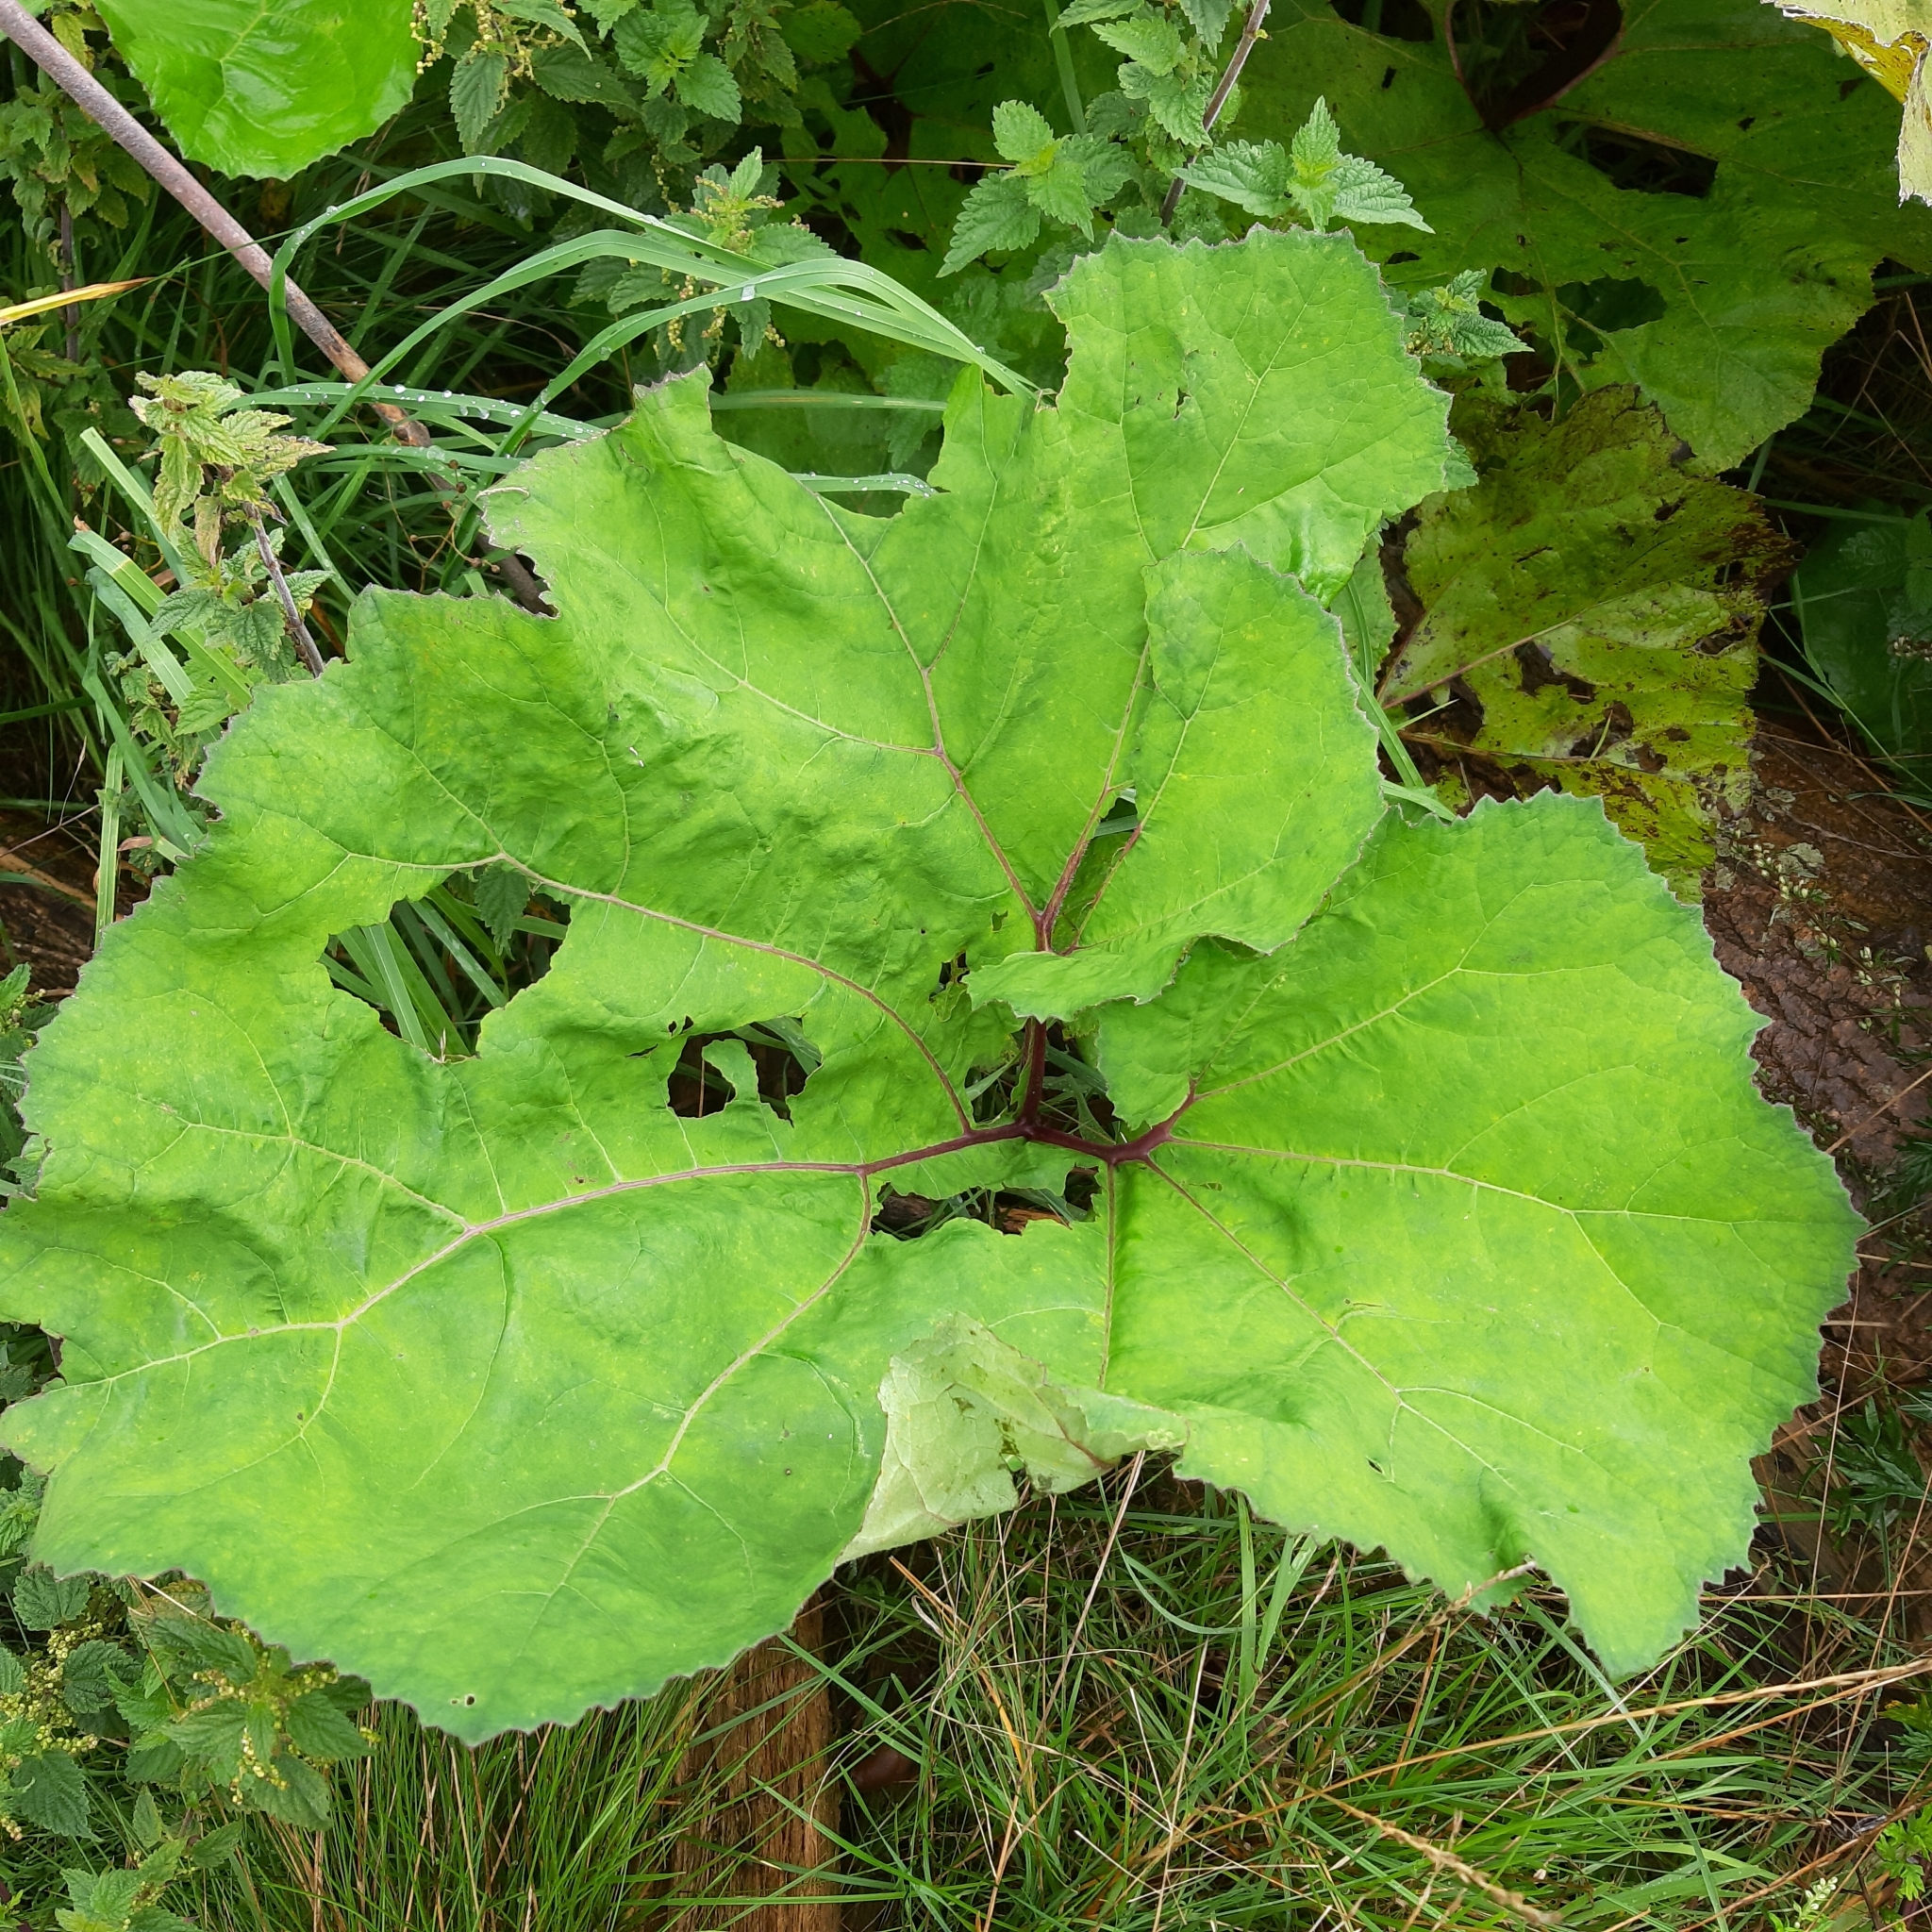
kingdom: Plantae
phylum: Tracheophyta
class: Magnoliopsida
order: Asterales
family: Asteraceae
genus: Petasites
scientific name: Petasites hybridus
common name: Butterbur
